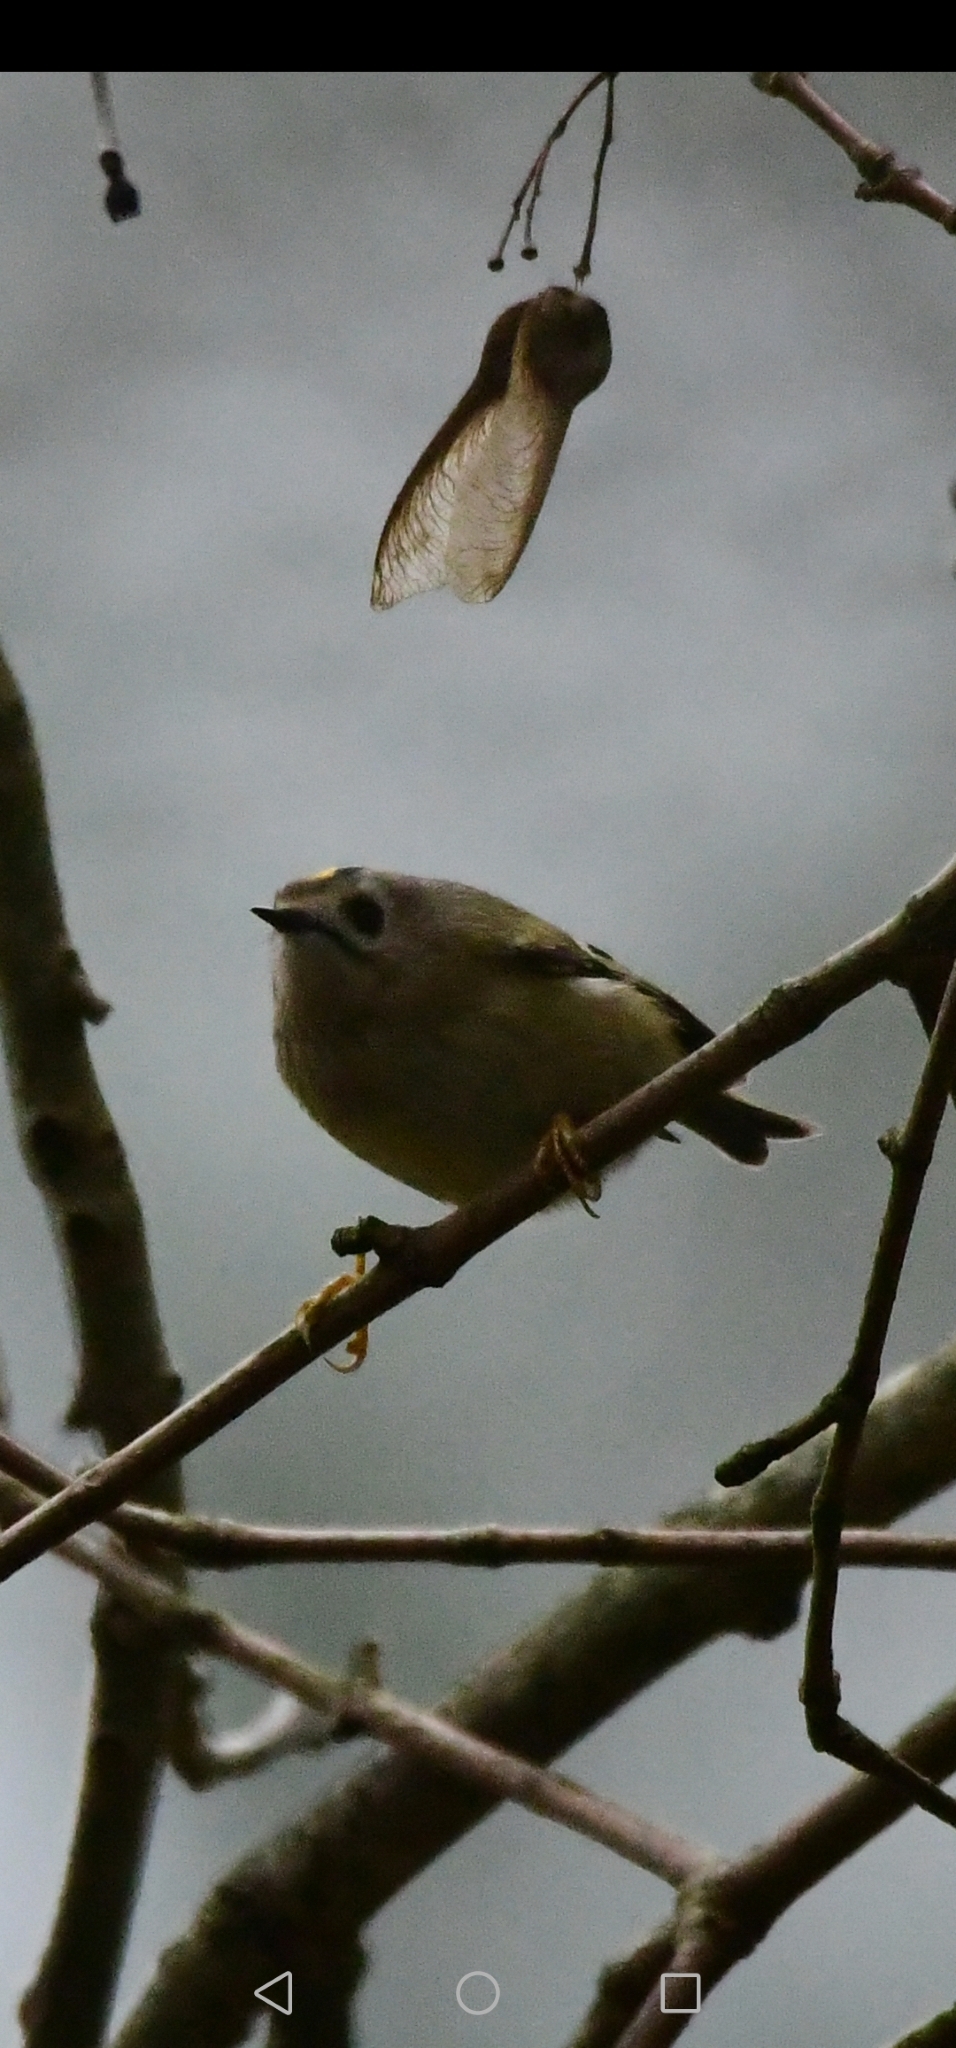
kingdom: Animalia
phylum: Chordata
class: Aves
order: Passeriformes
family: Regulidae
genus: Regulus
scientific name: Regulus regulus
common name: Goldcrest
